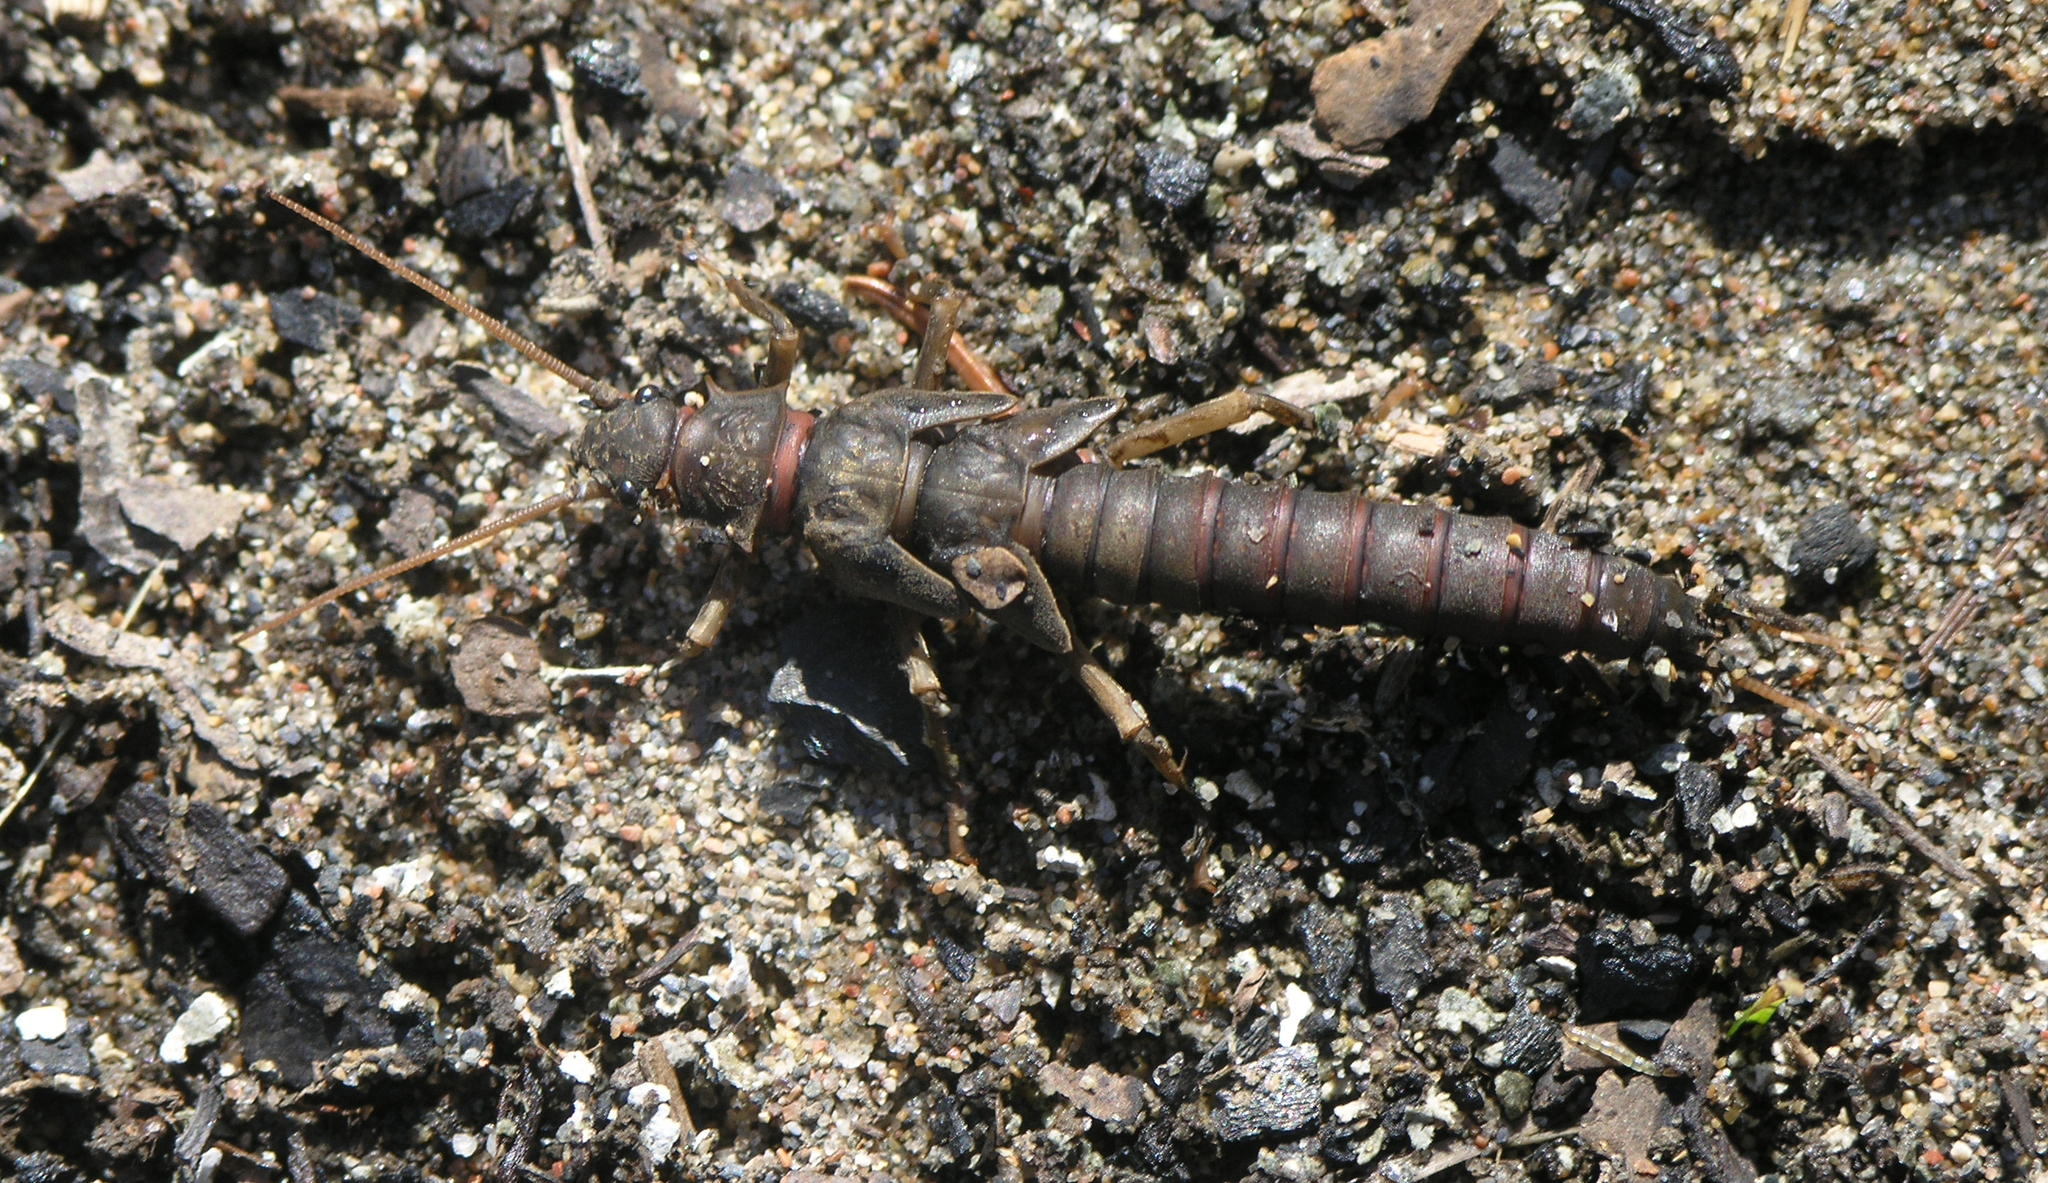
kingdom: Animalia
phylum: Arthropoda
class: Insecta
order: Plecoptera
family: Pteronarcyidae
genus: Pteronarcys
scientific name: Pteronarcys reticulata
